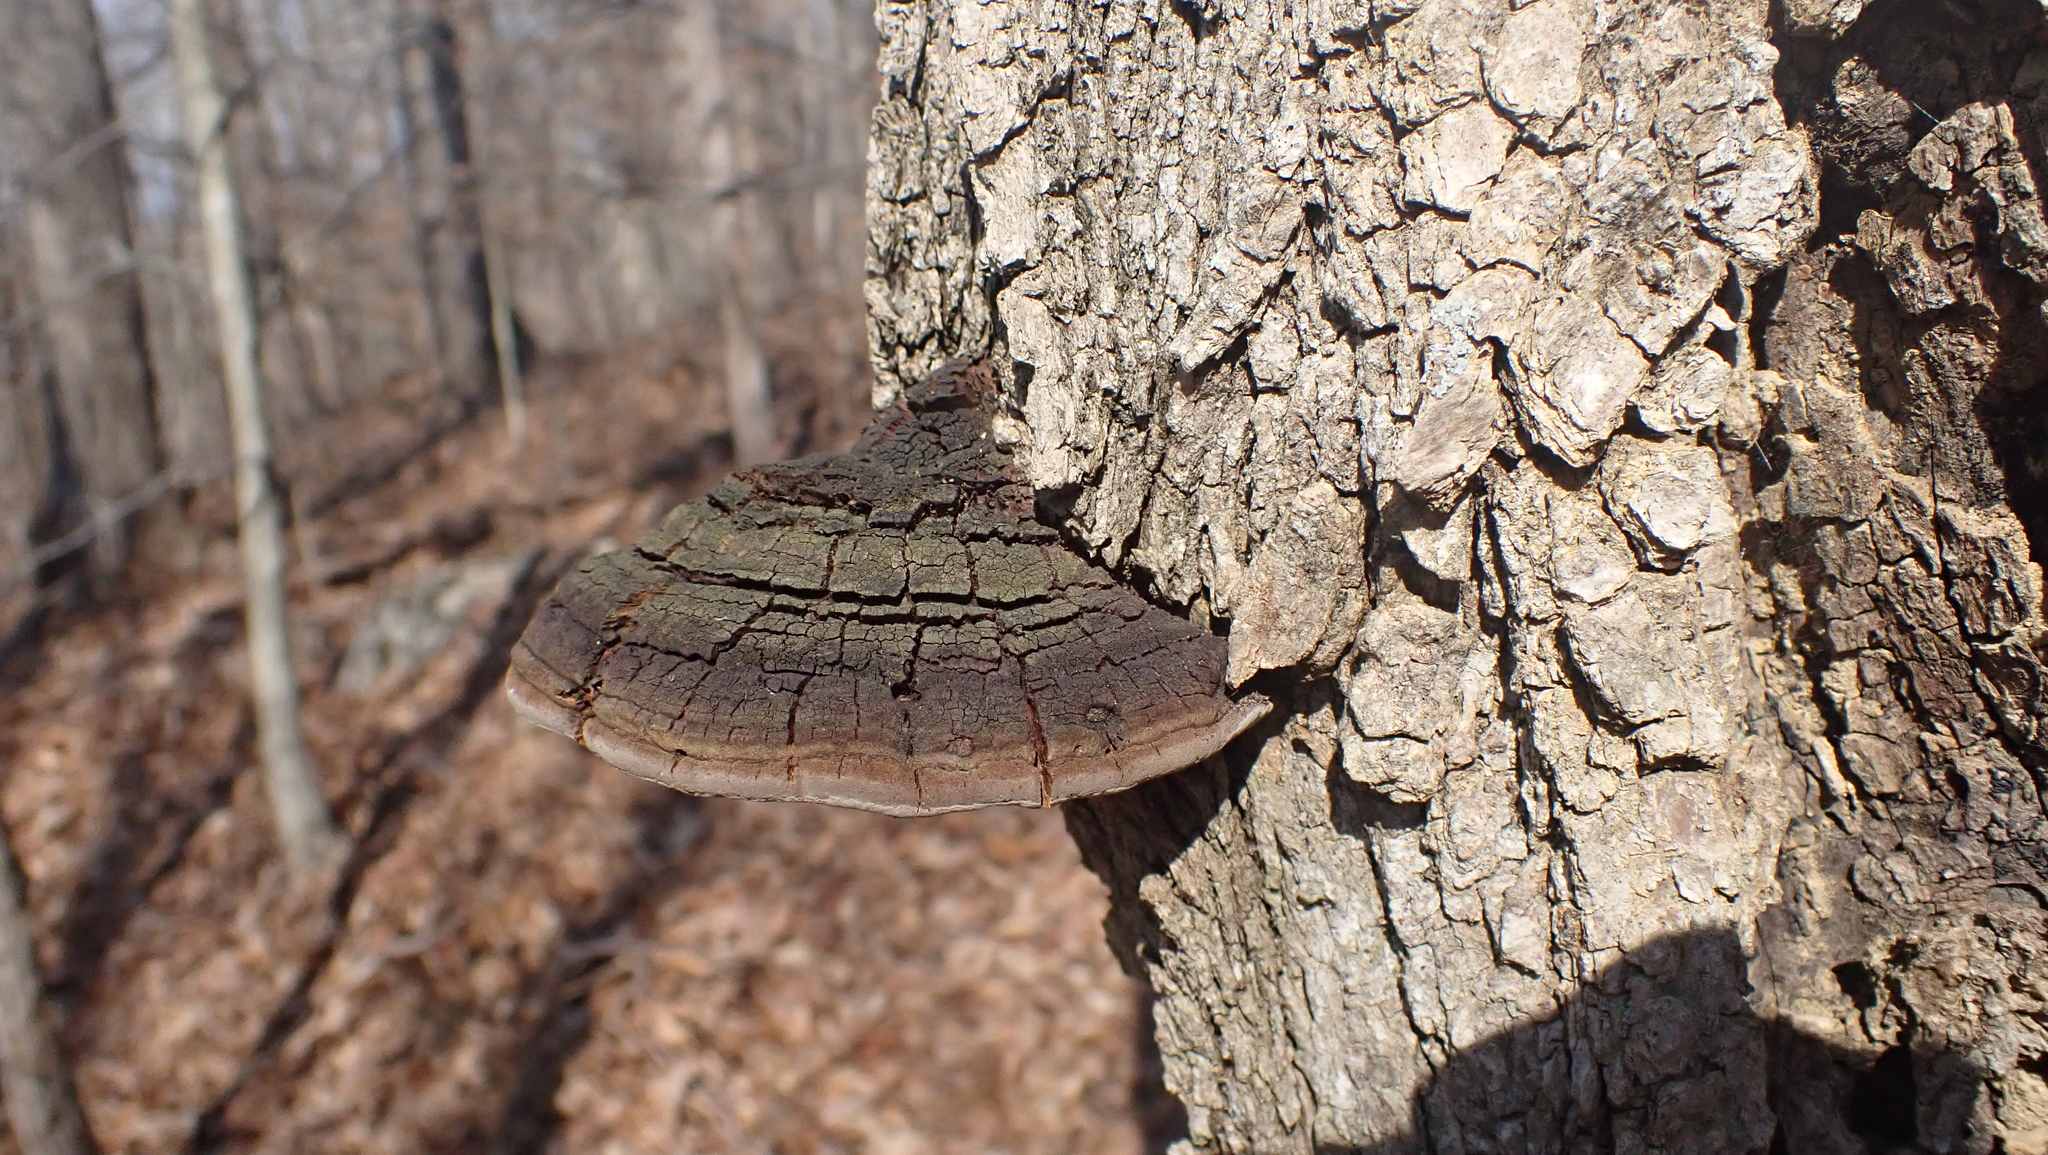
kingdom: Fungi
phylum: Basidiomycota
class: Agaricomycetes
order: Hymenochaetales
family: Hymenochaetaceae
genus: Phellinus
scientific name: Phellinus robiniae
